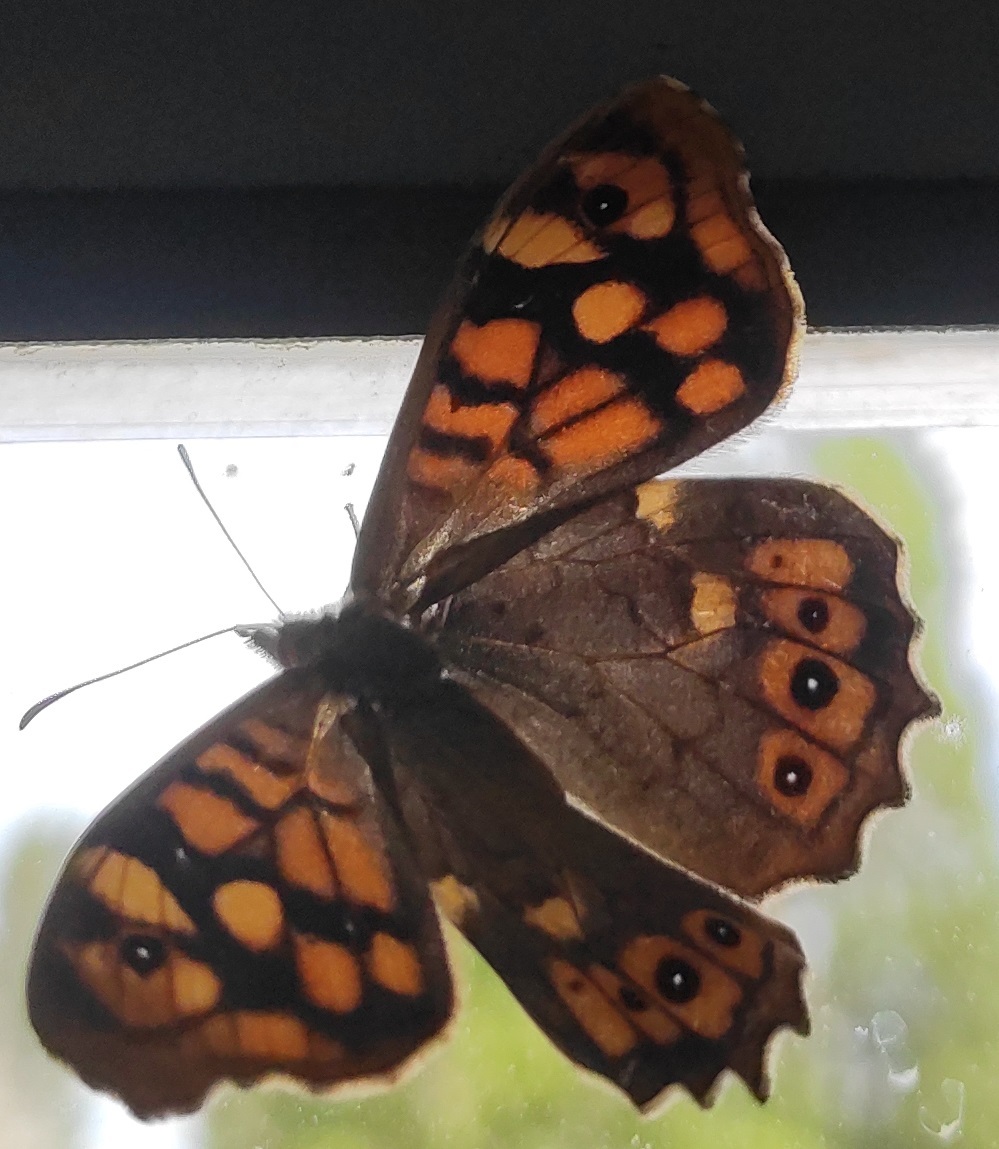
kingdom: Animalia
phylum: Arthropoda
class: Insecta
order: Lepidoptera
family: Nymphalidae
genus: Pararge
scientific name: Pararge aegeria
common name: Speckled wood
